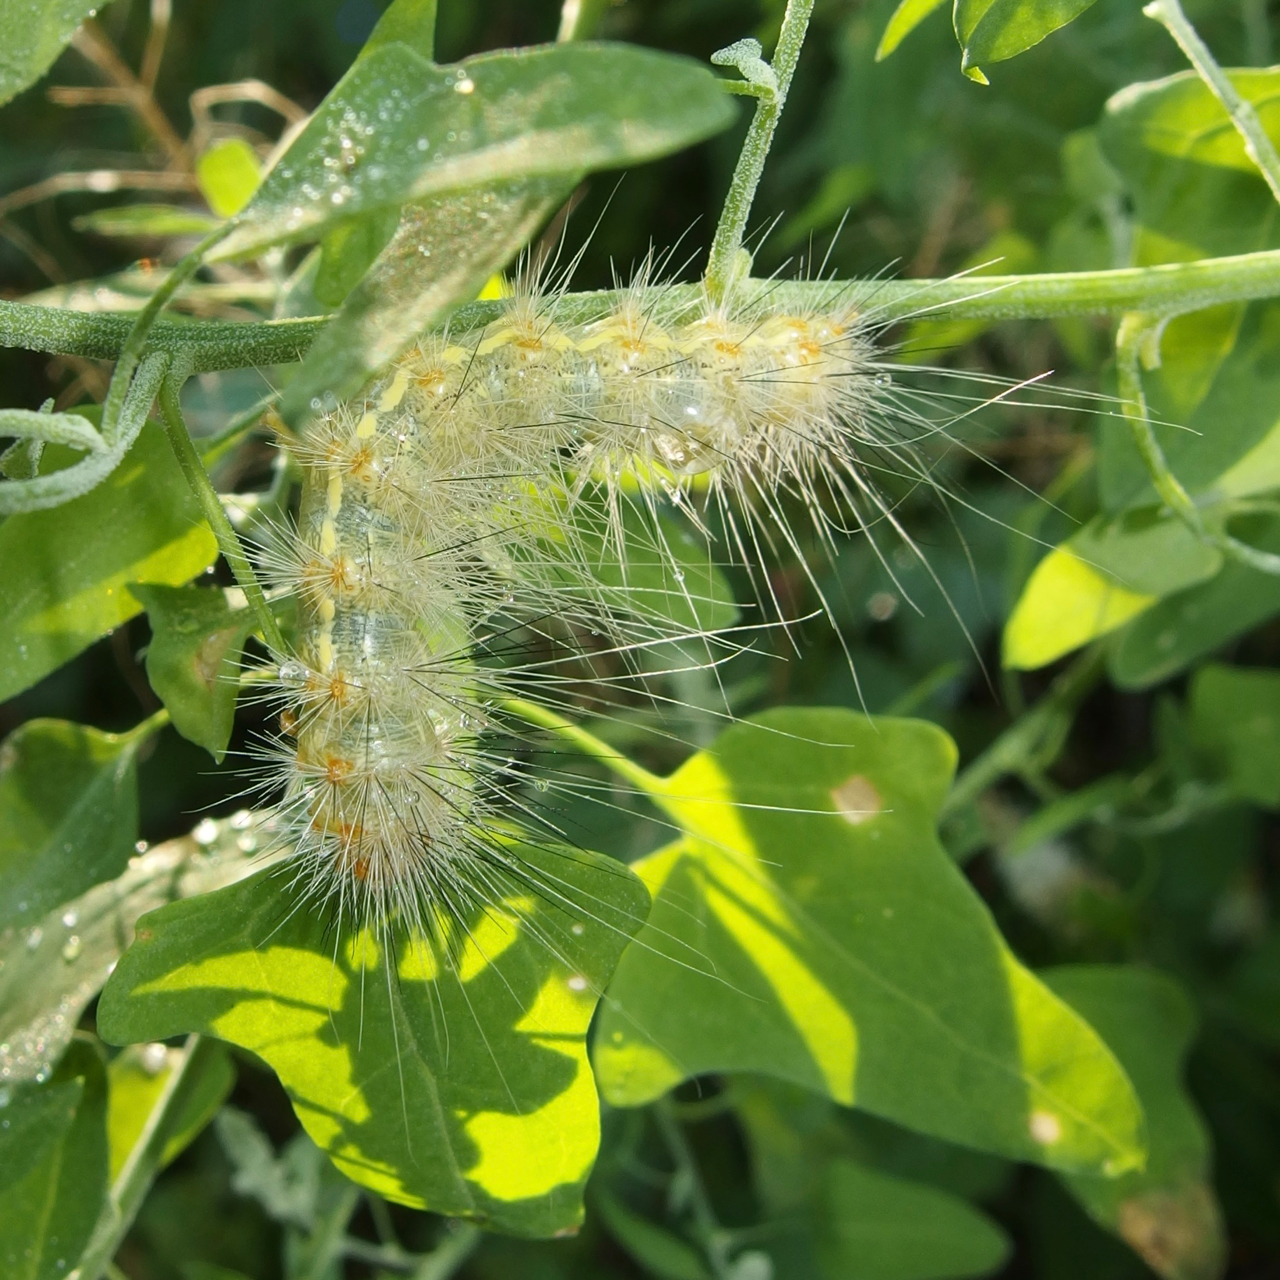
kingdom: Animalia
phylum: Arthropoda
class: Insecta
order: Lepidoptera
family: Erebidae
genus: Hypercompe
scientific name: Hypercompe suffusa
